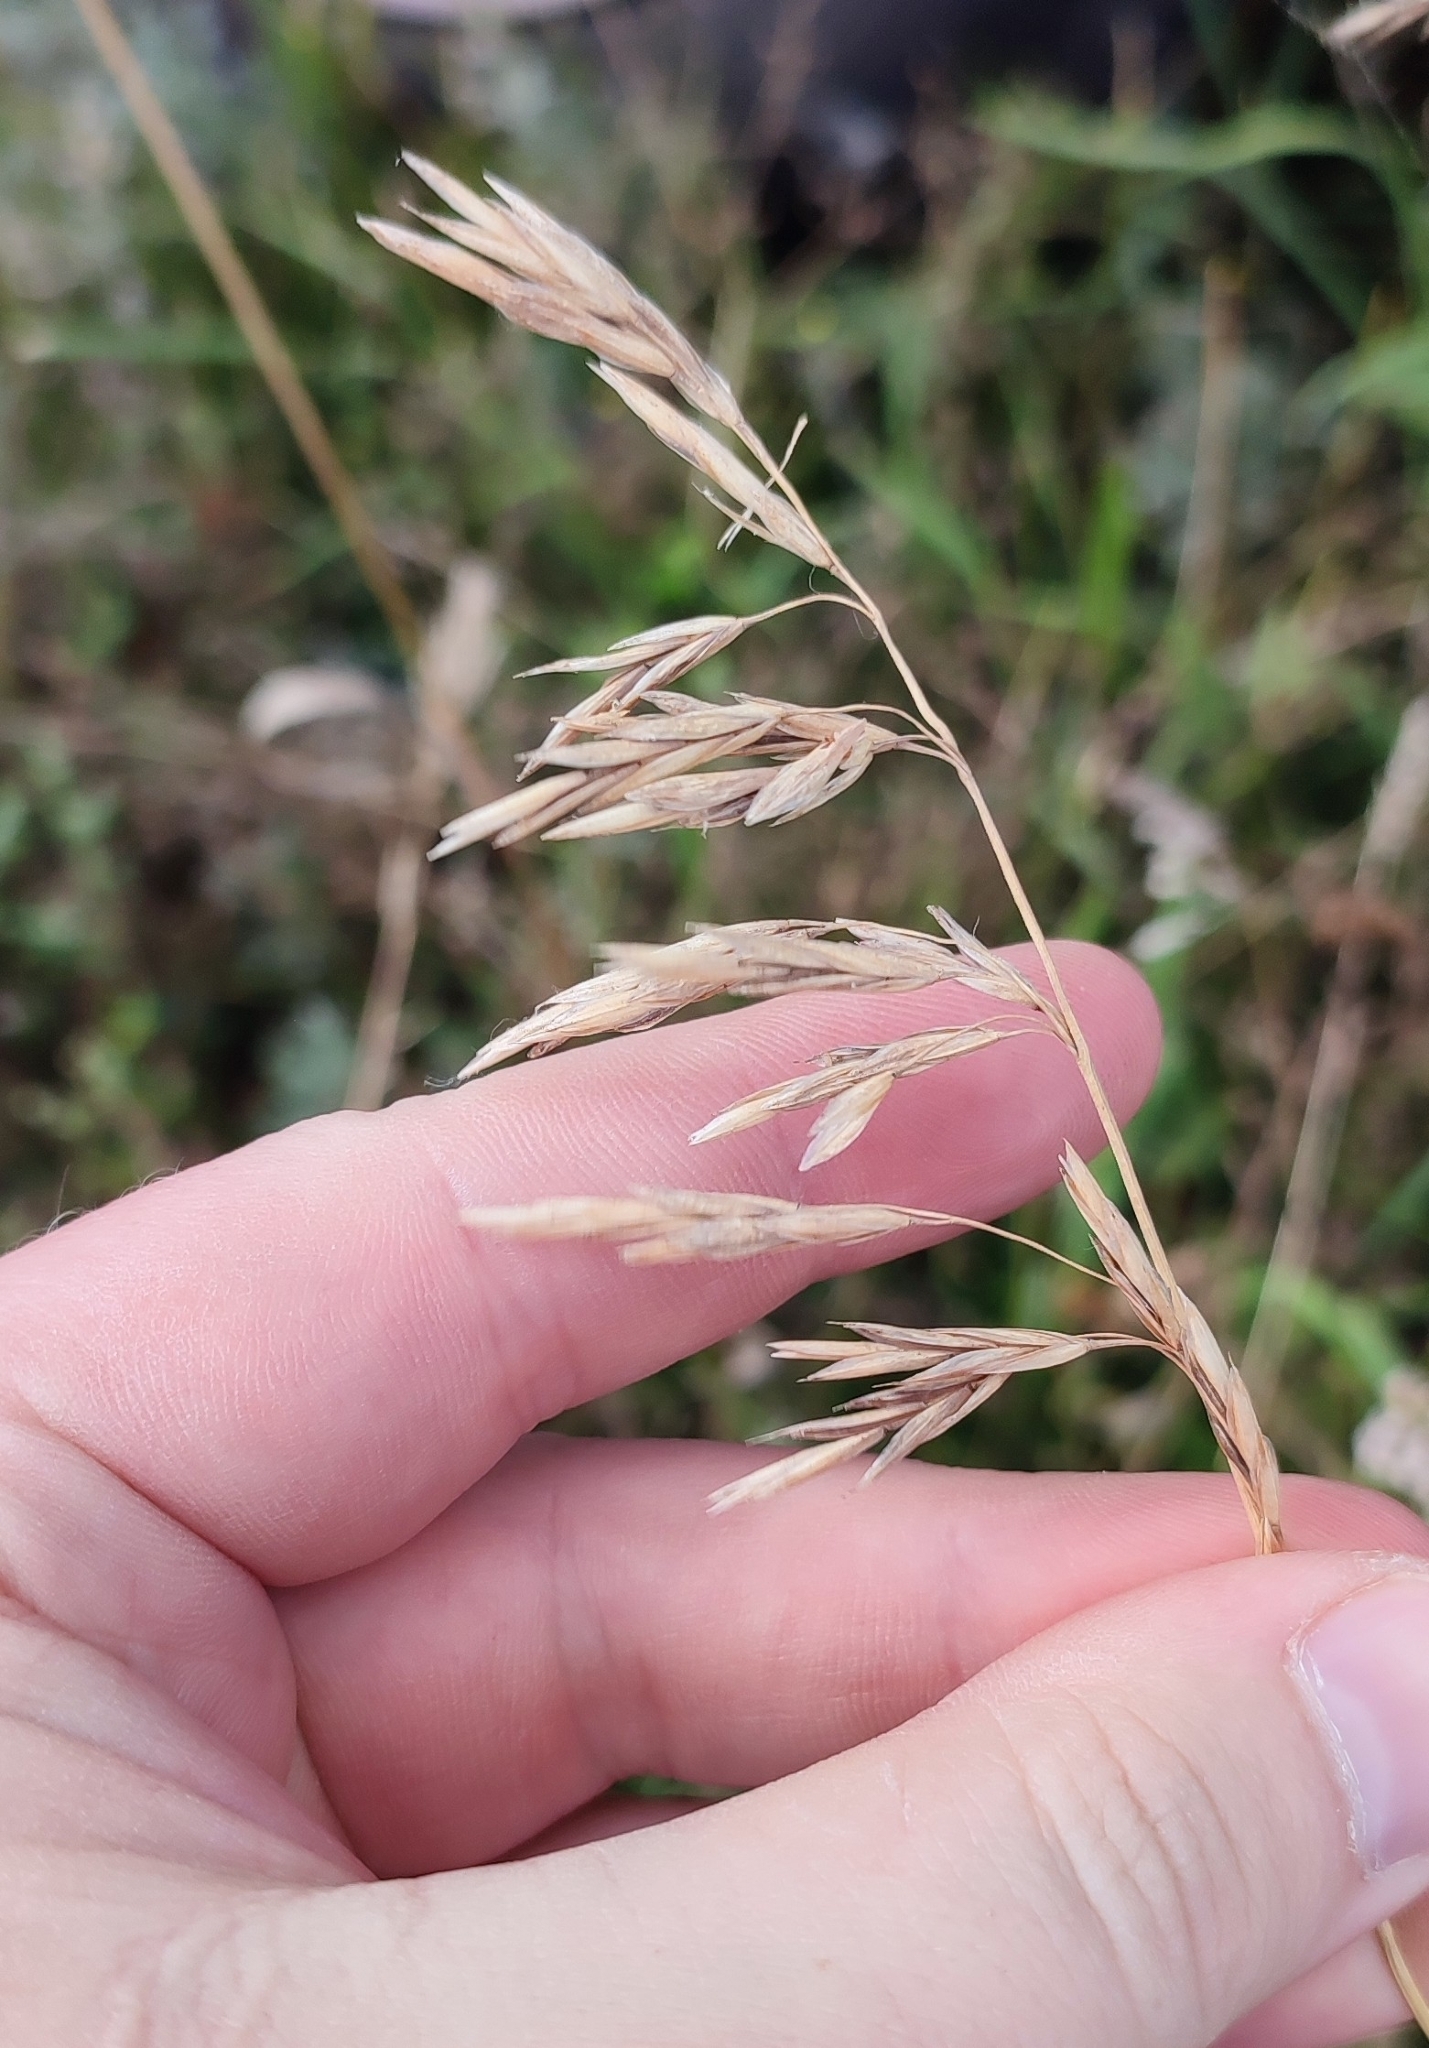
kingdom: Plantae
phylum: Tracheophyta
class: Liliopsida
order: Poales
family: Poaceae
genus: Bromus
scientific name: Bromus inermis
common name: Smooth brome
